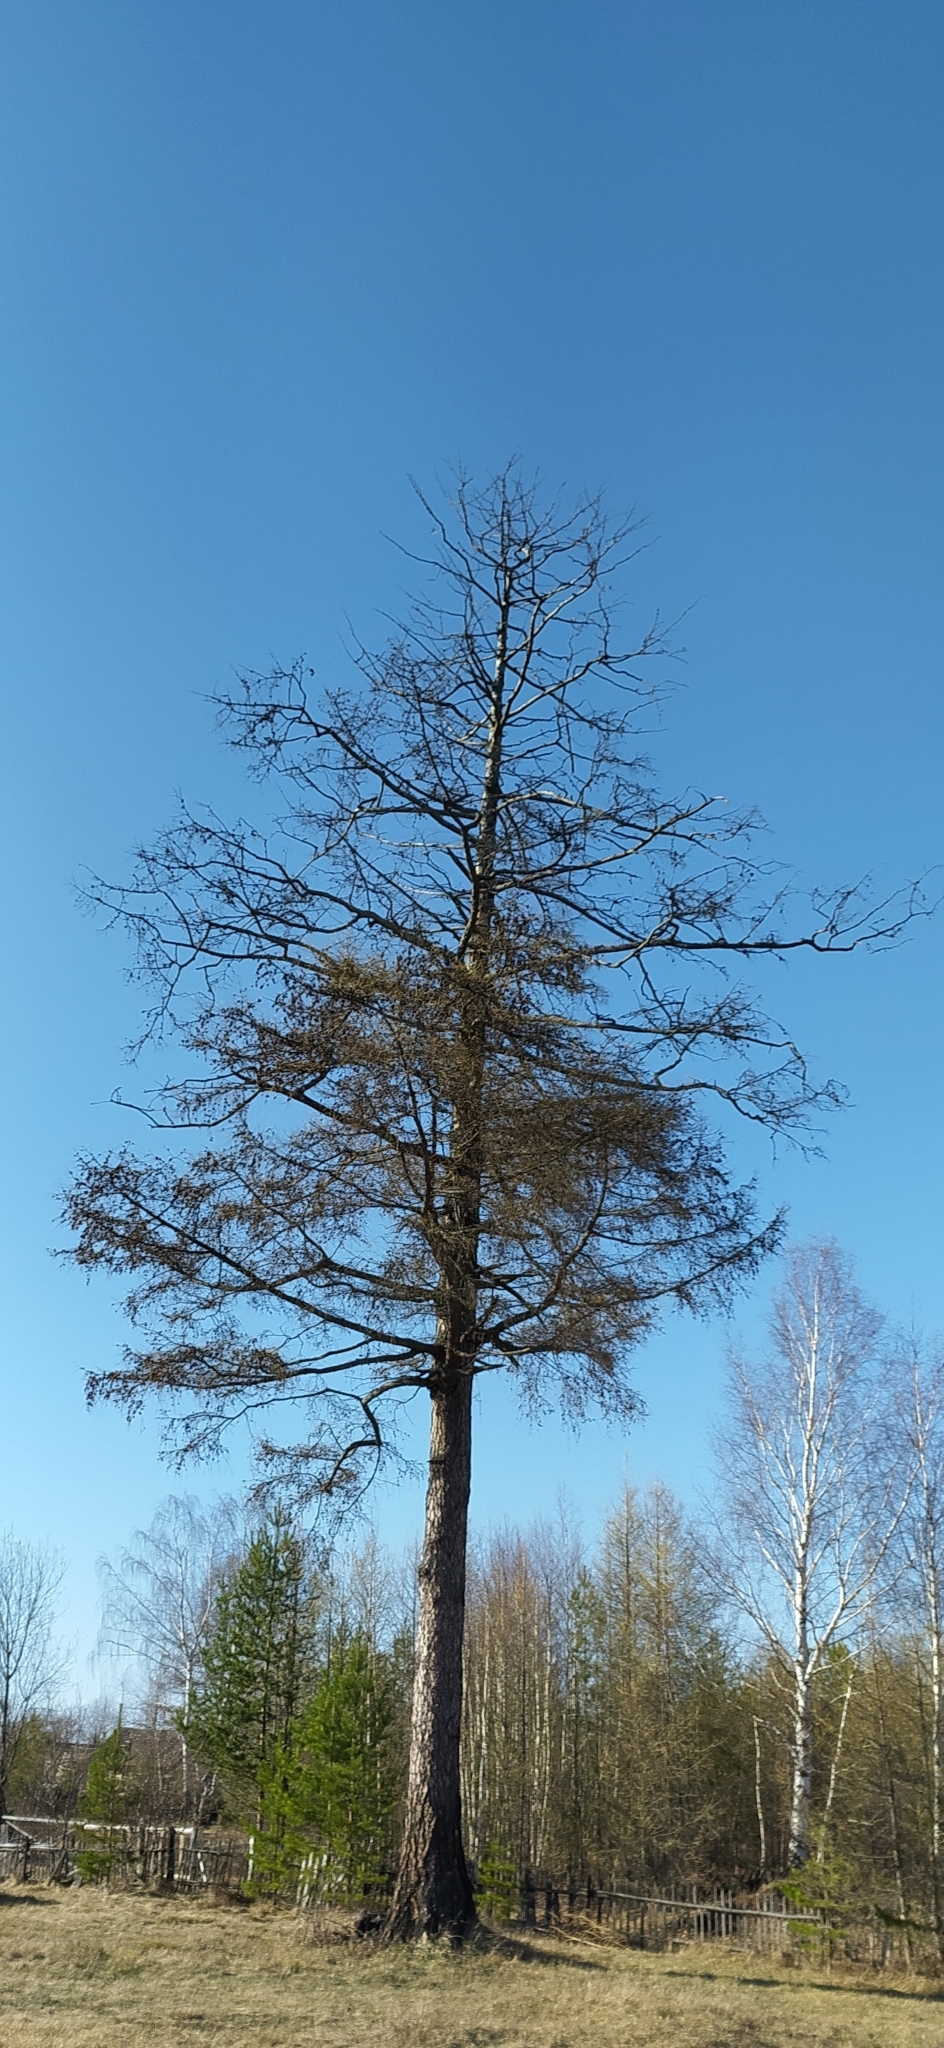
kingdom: Plantae
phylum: Tracheophyta
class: Pinopsida
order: Pinales
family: Pinaceae
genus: Larix
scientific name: Larix sibirica
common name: Siberian larch
